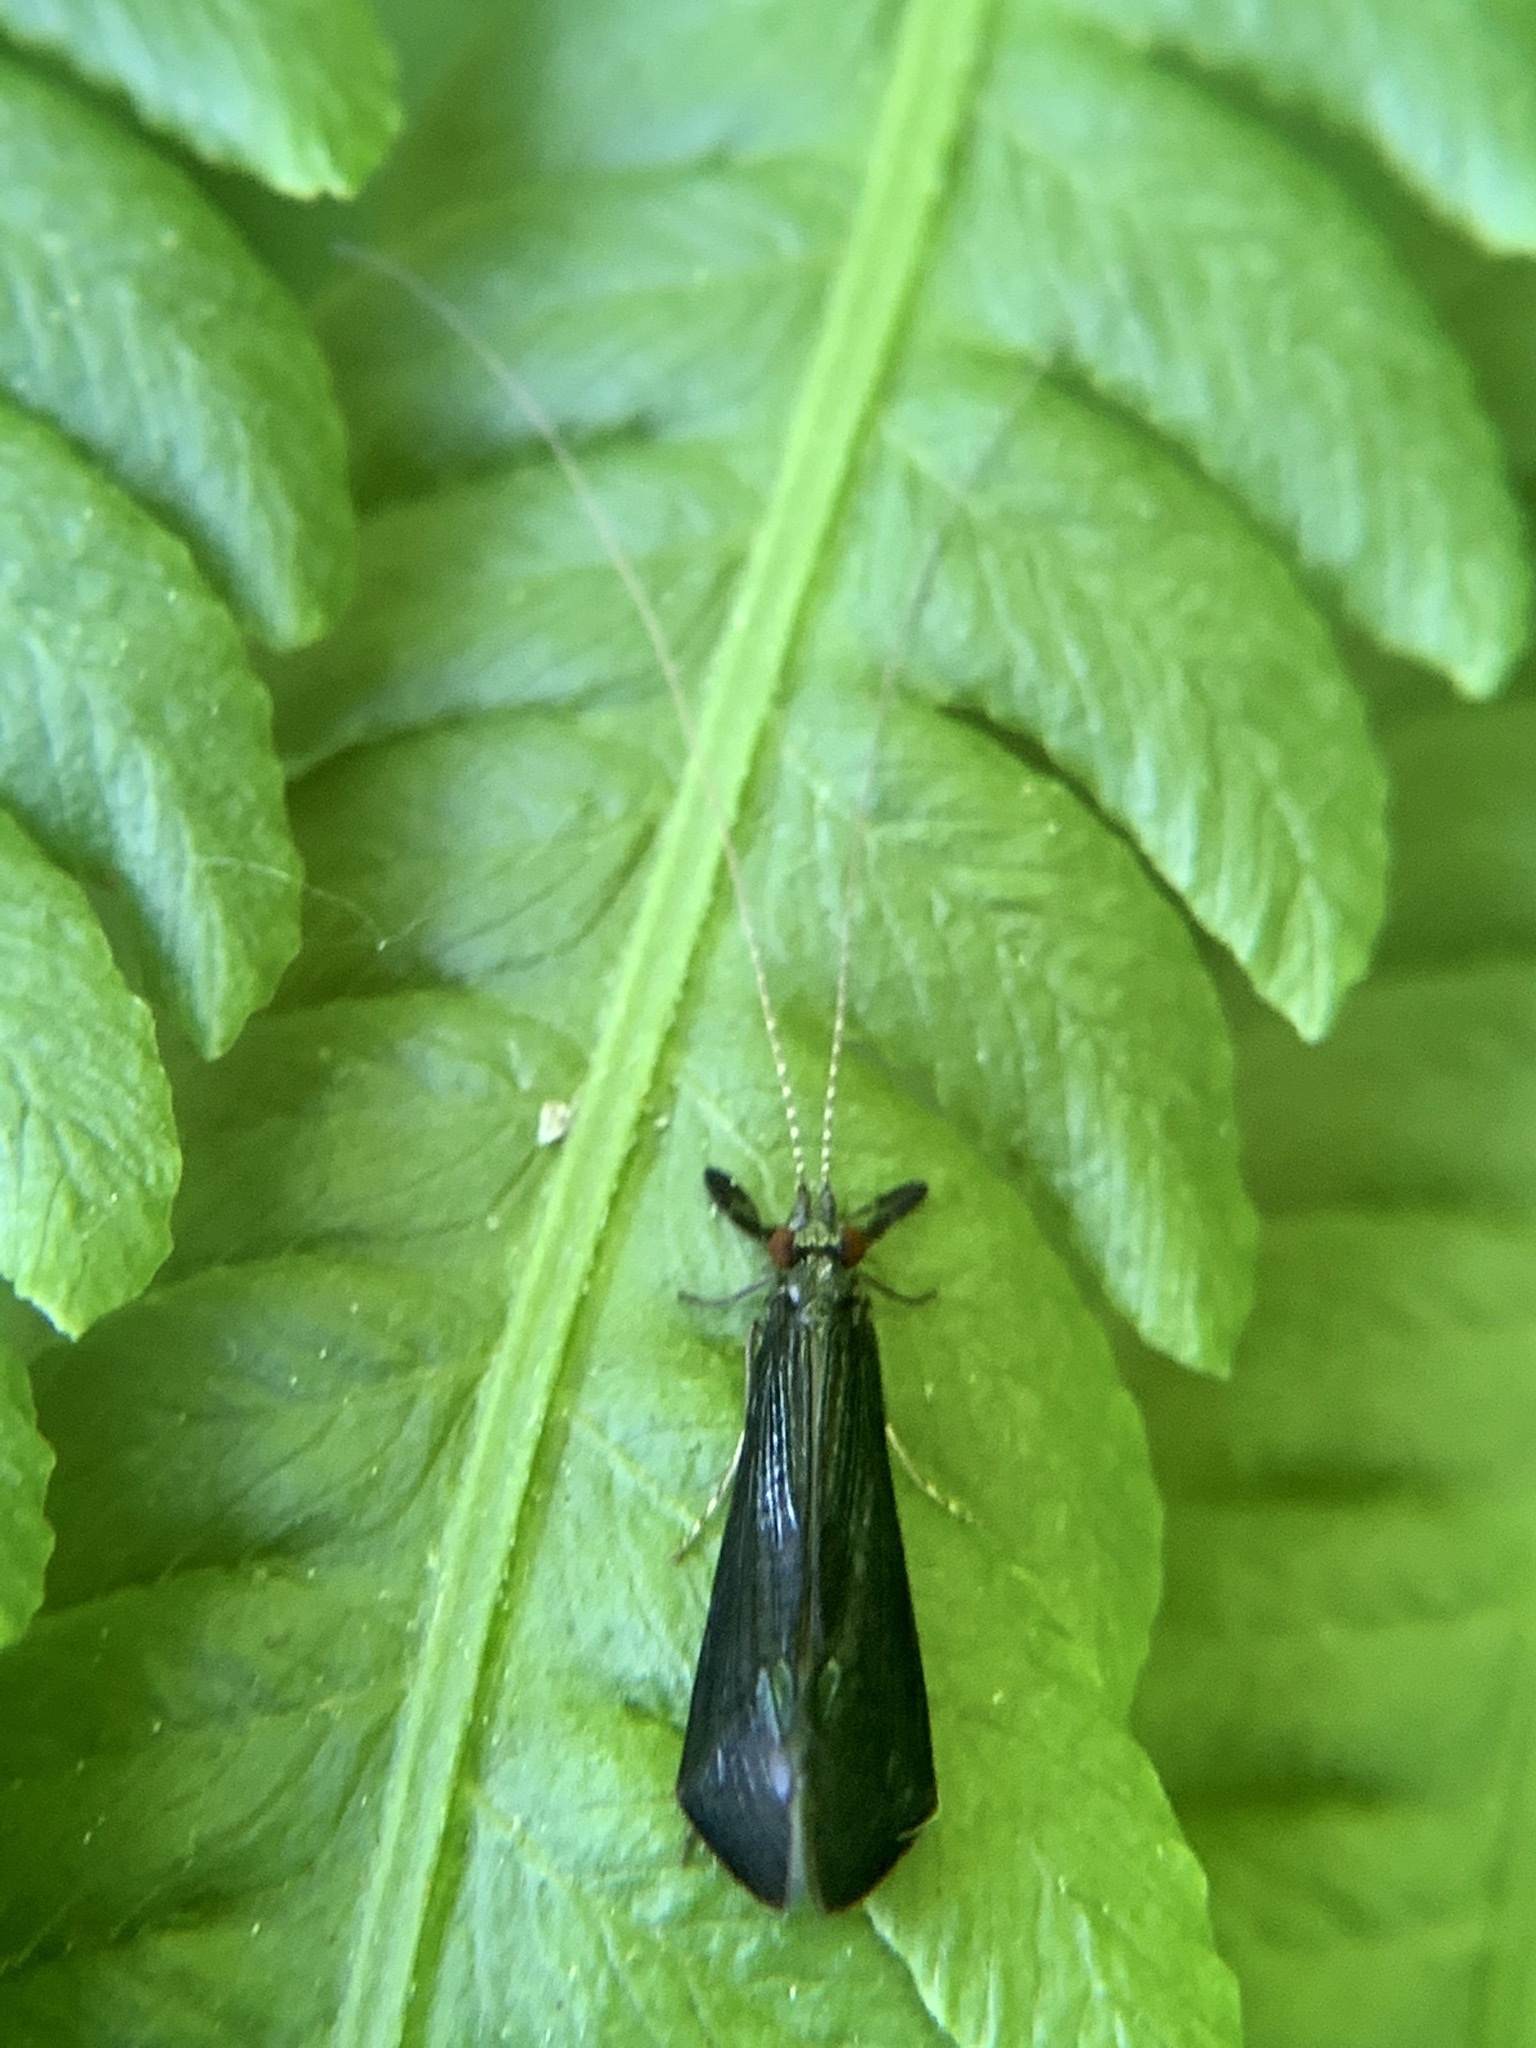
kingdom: Animalia
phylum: Arthropoda
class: Insecta
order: Trichoptera
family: Leptoceridae
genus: Mystacides
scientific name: Mystacides sepulchralis
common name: Black dancer caddisfly
